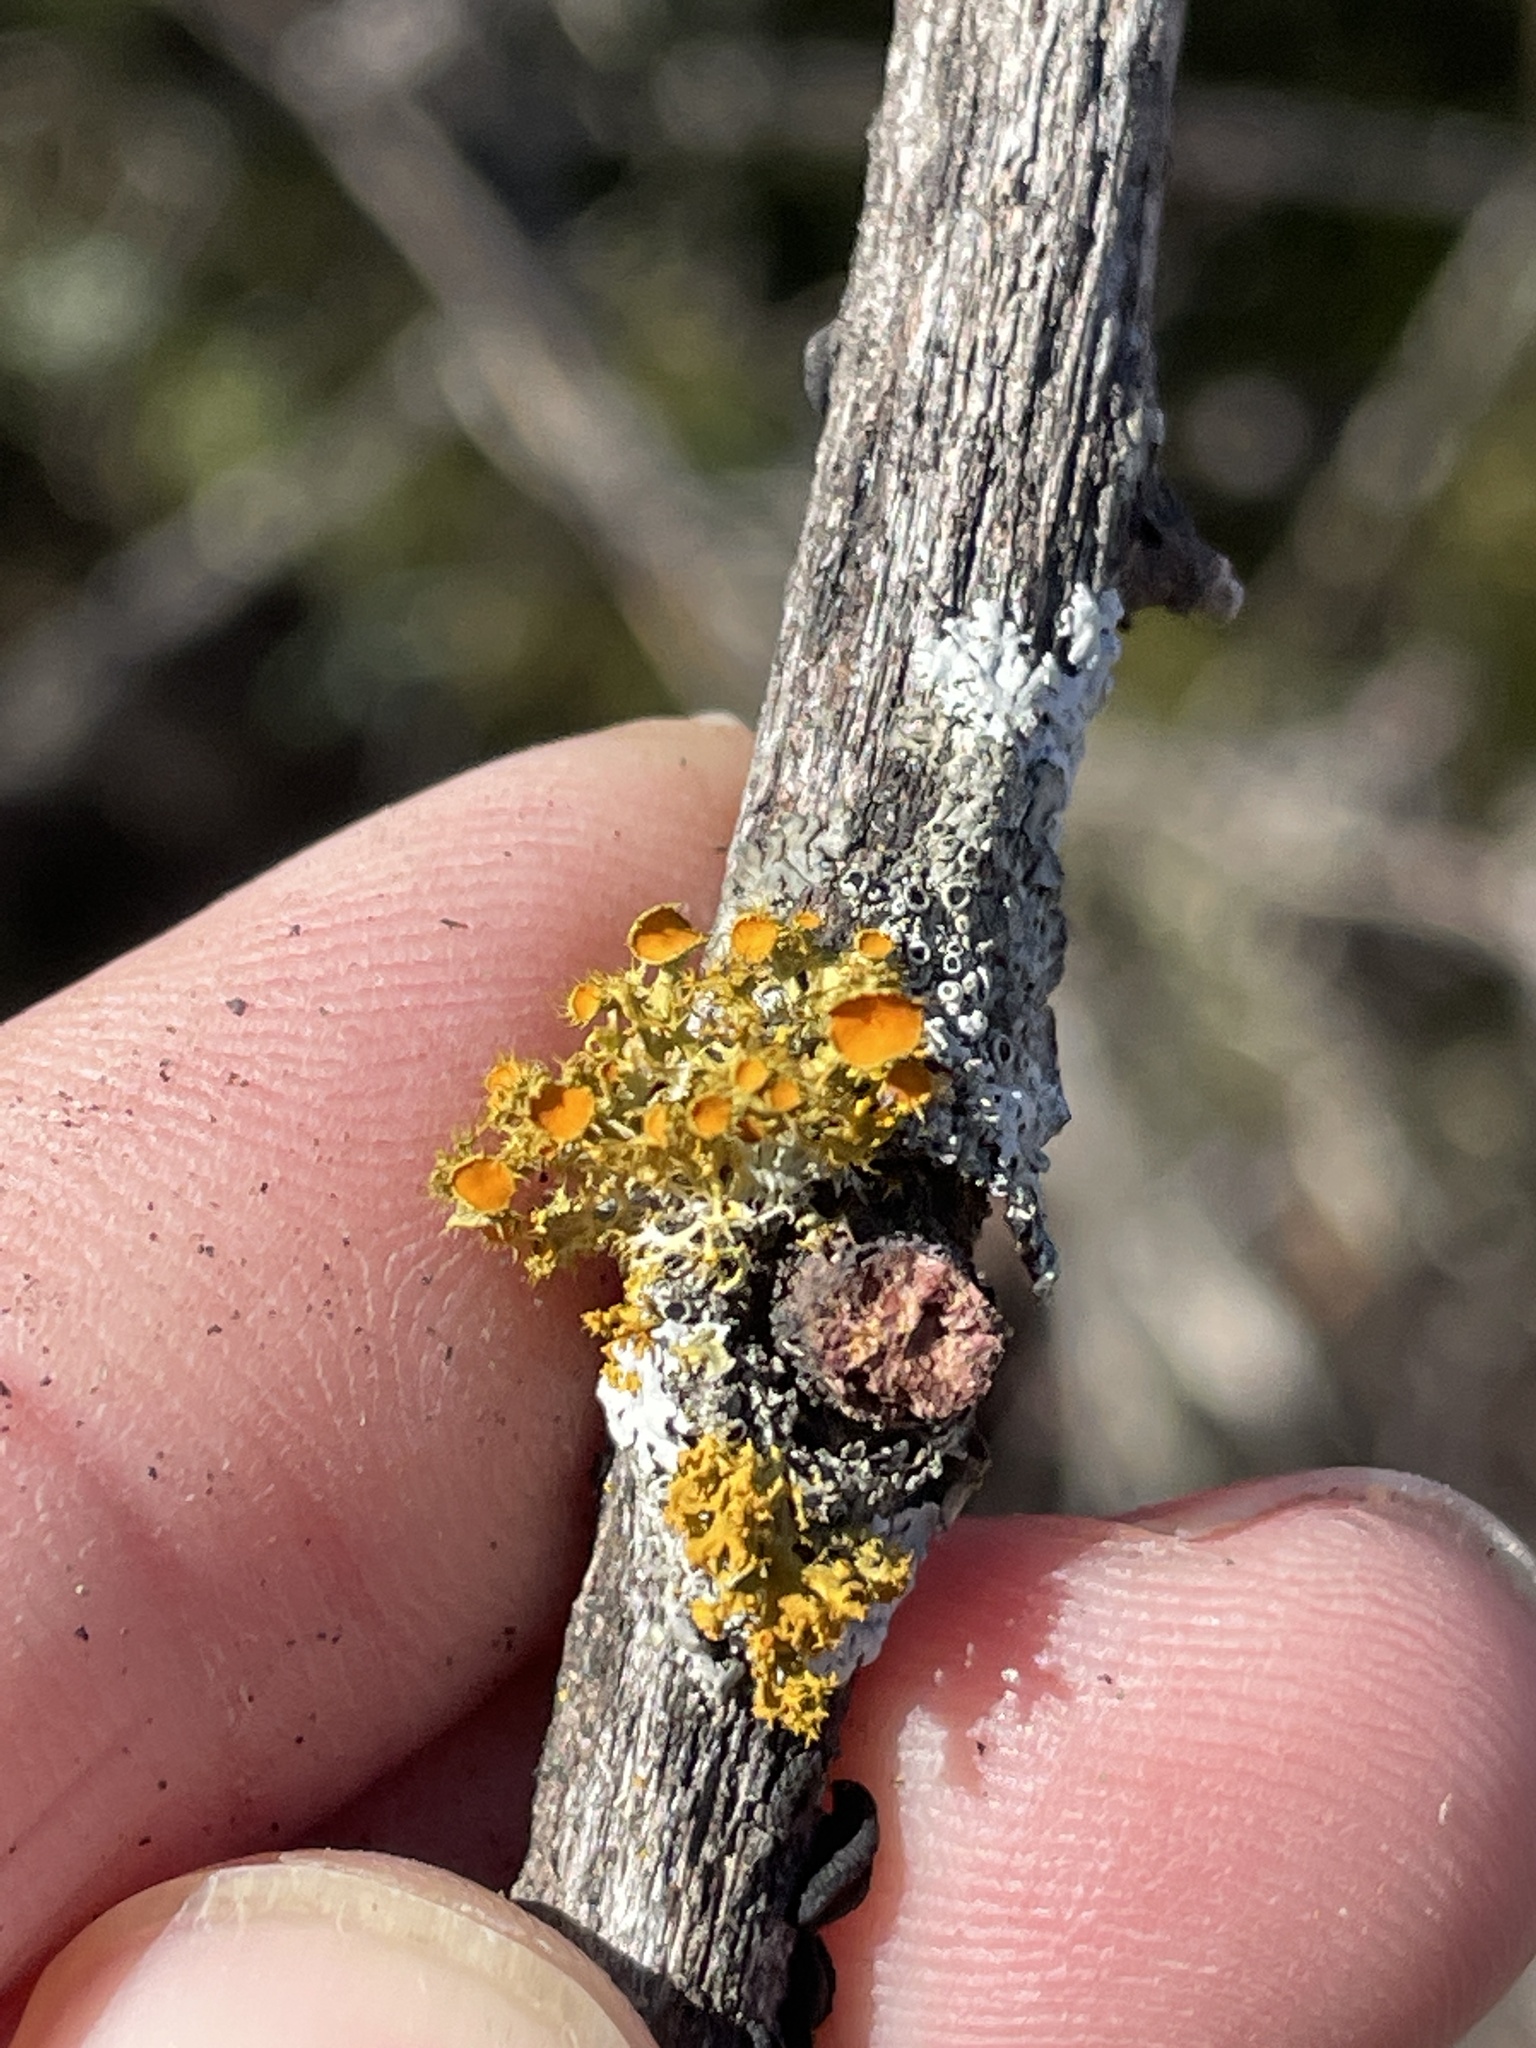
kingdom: Fungi
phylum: Ascomycota
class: Lecanoromycetes
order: Teloschistales
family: Teloschistaceae
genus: Niorma
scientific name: Niorma chrysophthalma
